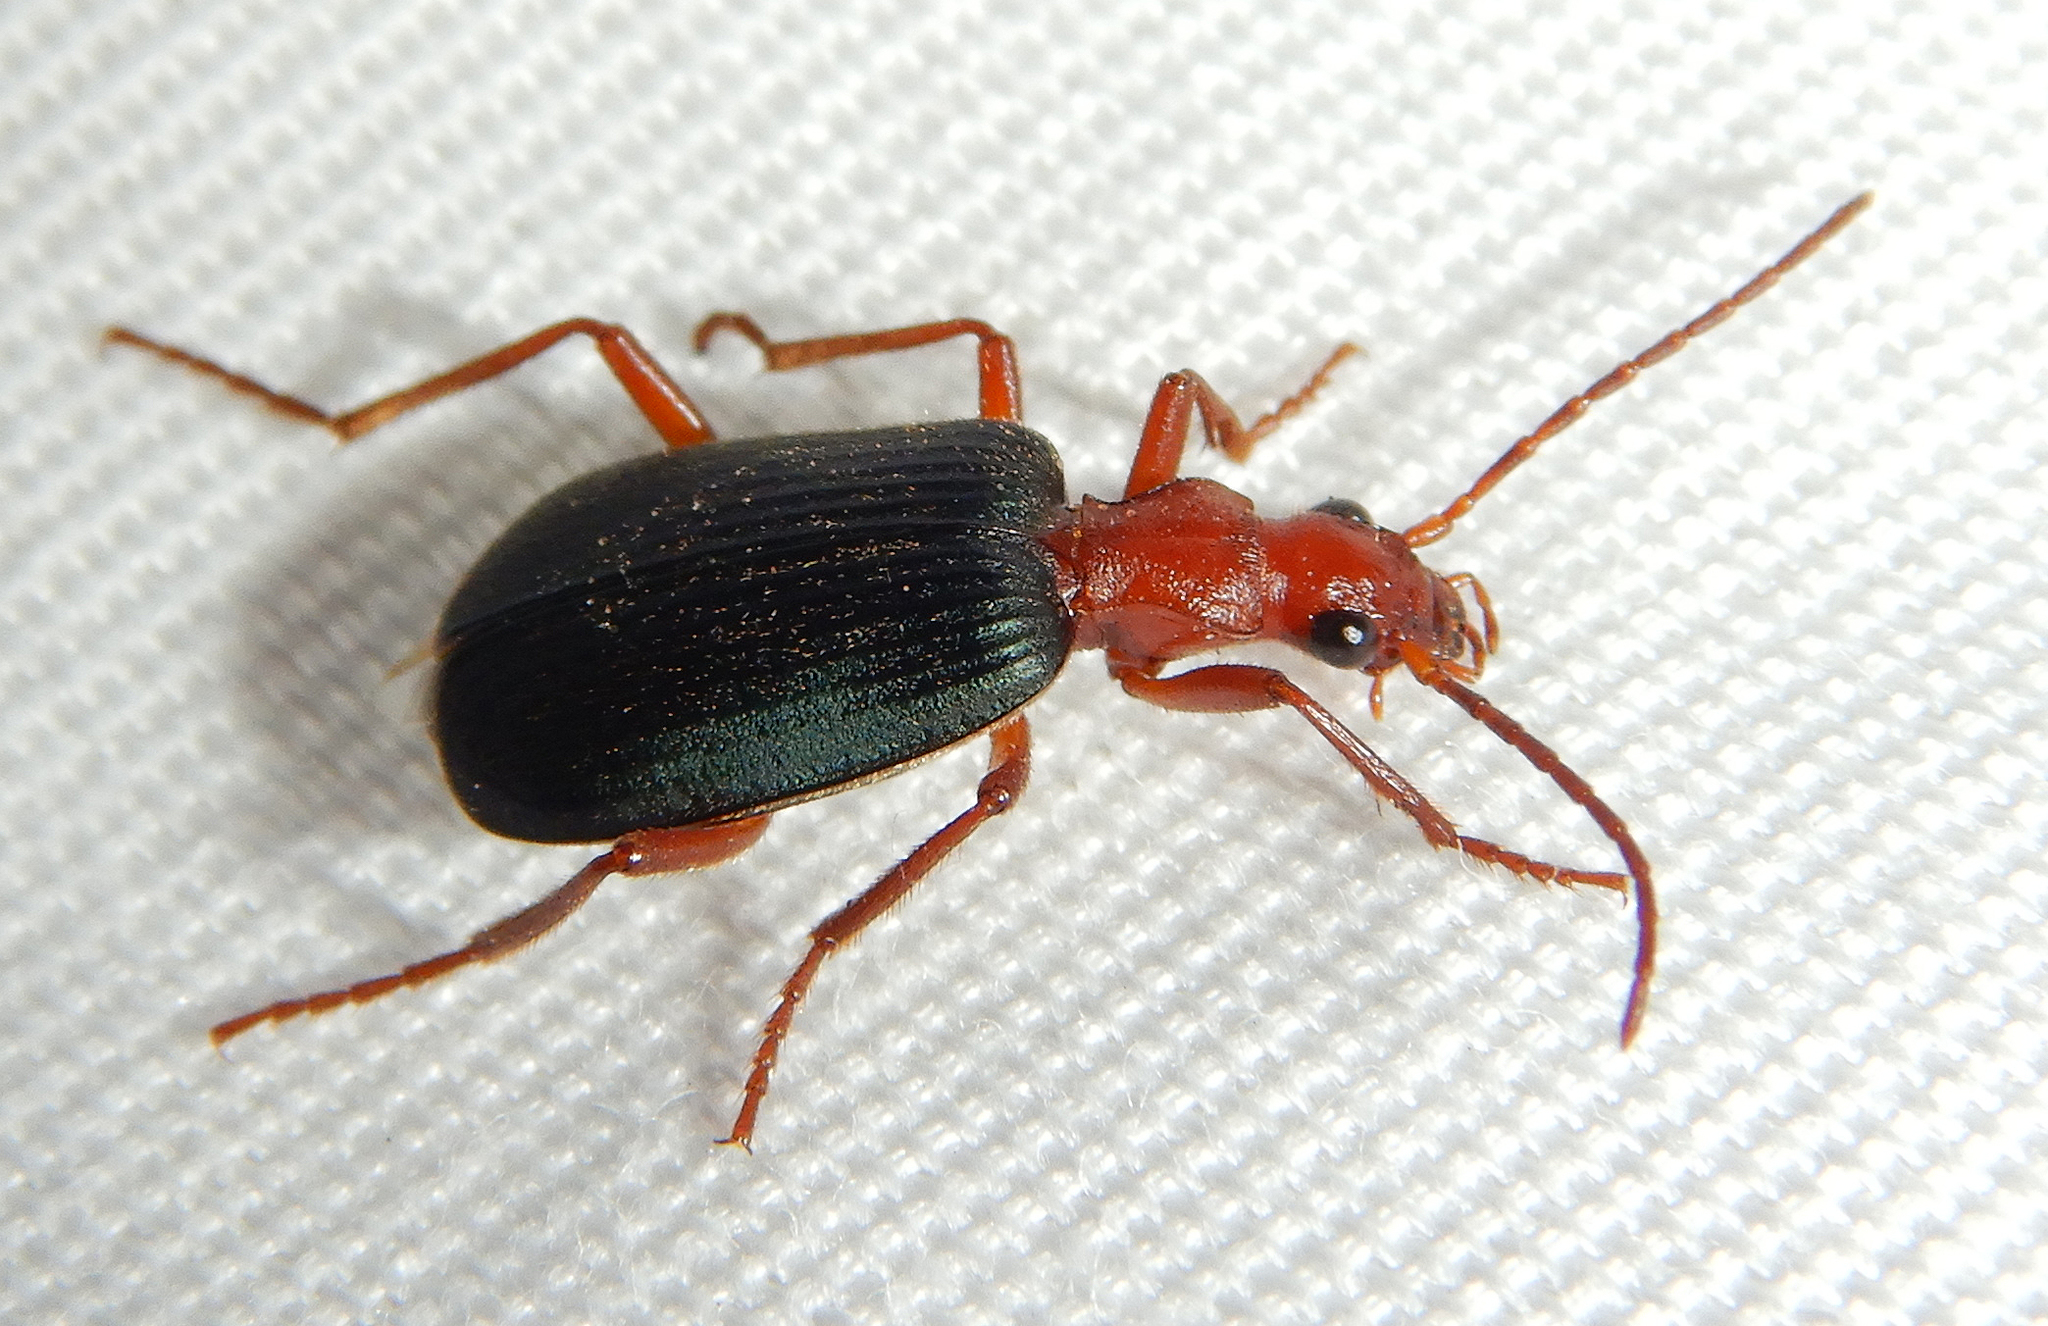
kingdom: Animalia
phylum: Arthropoda
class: Insecta
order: Coleoptera
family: Carabidae
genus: Brachinus
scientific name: Brachinus
